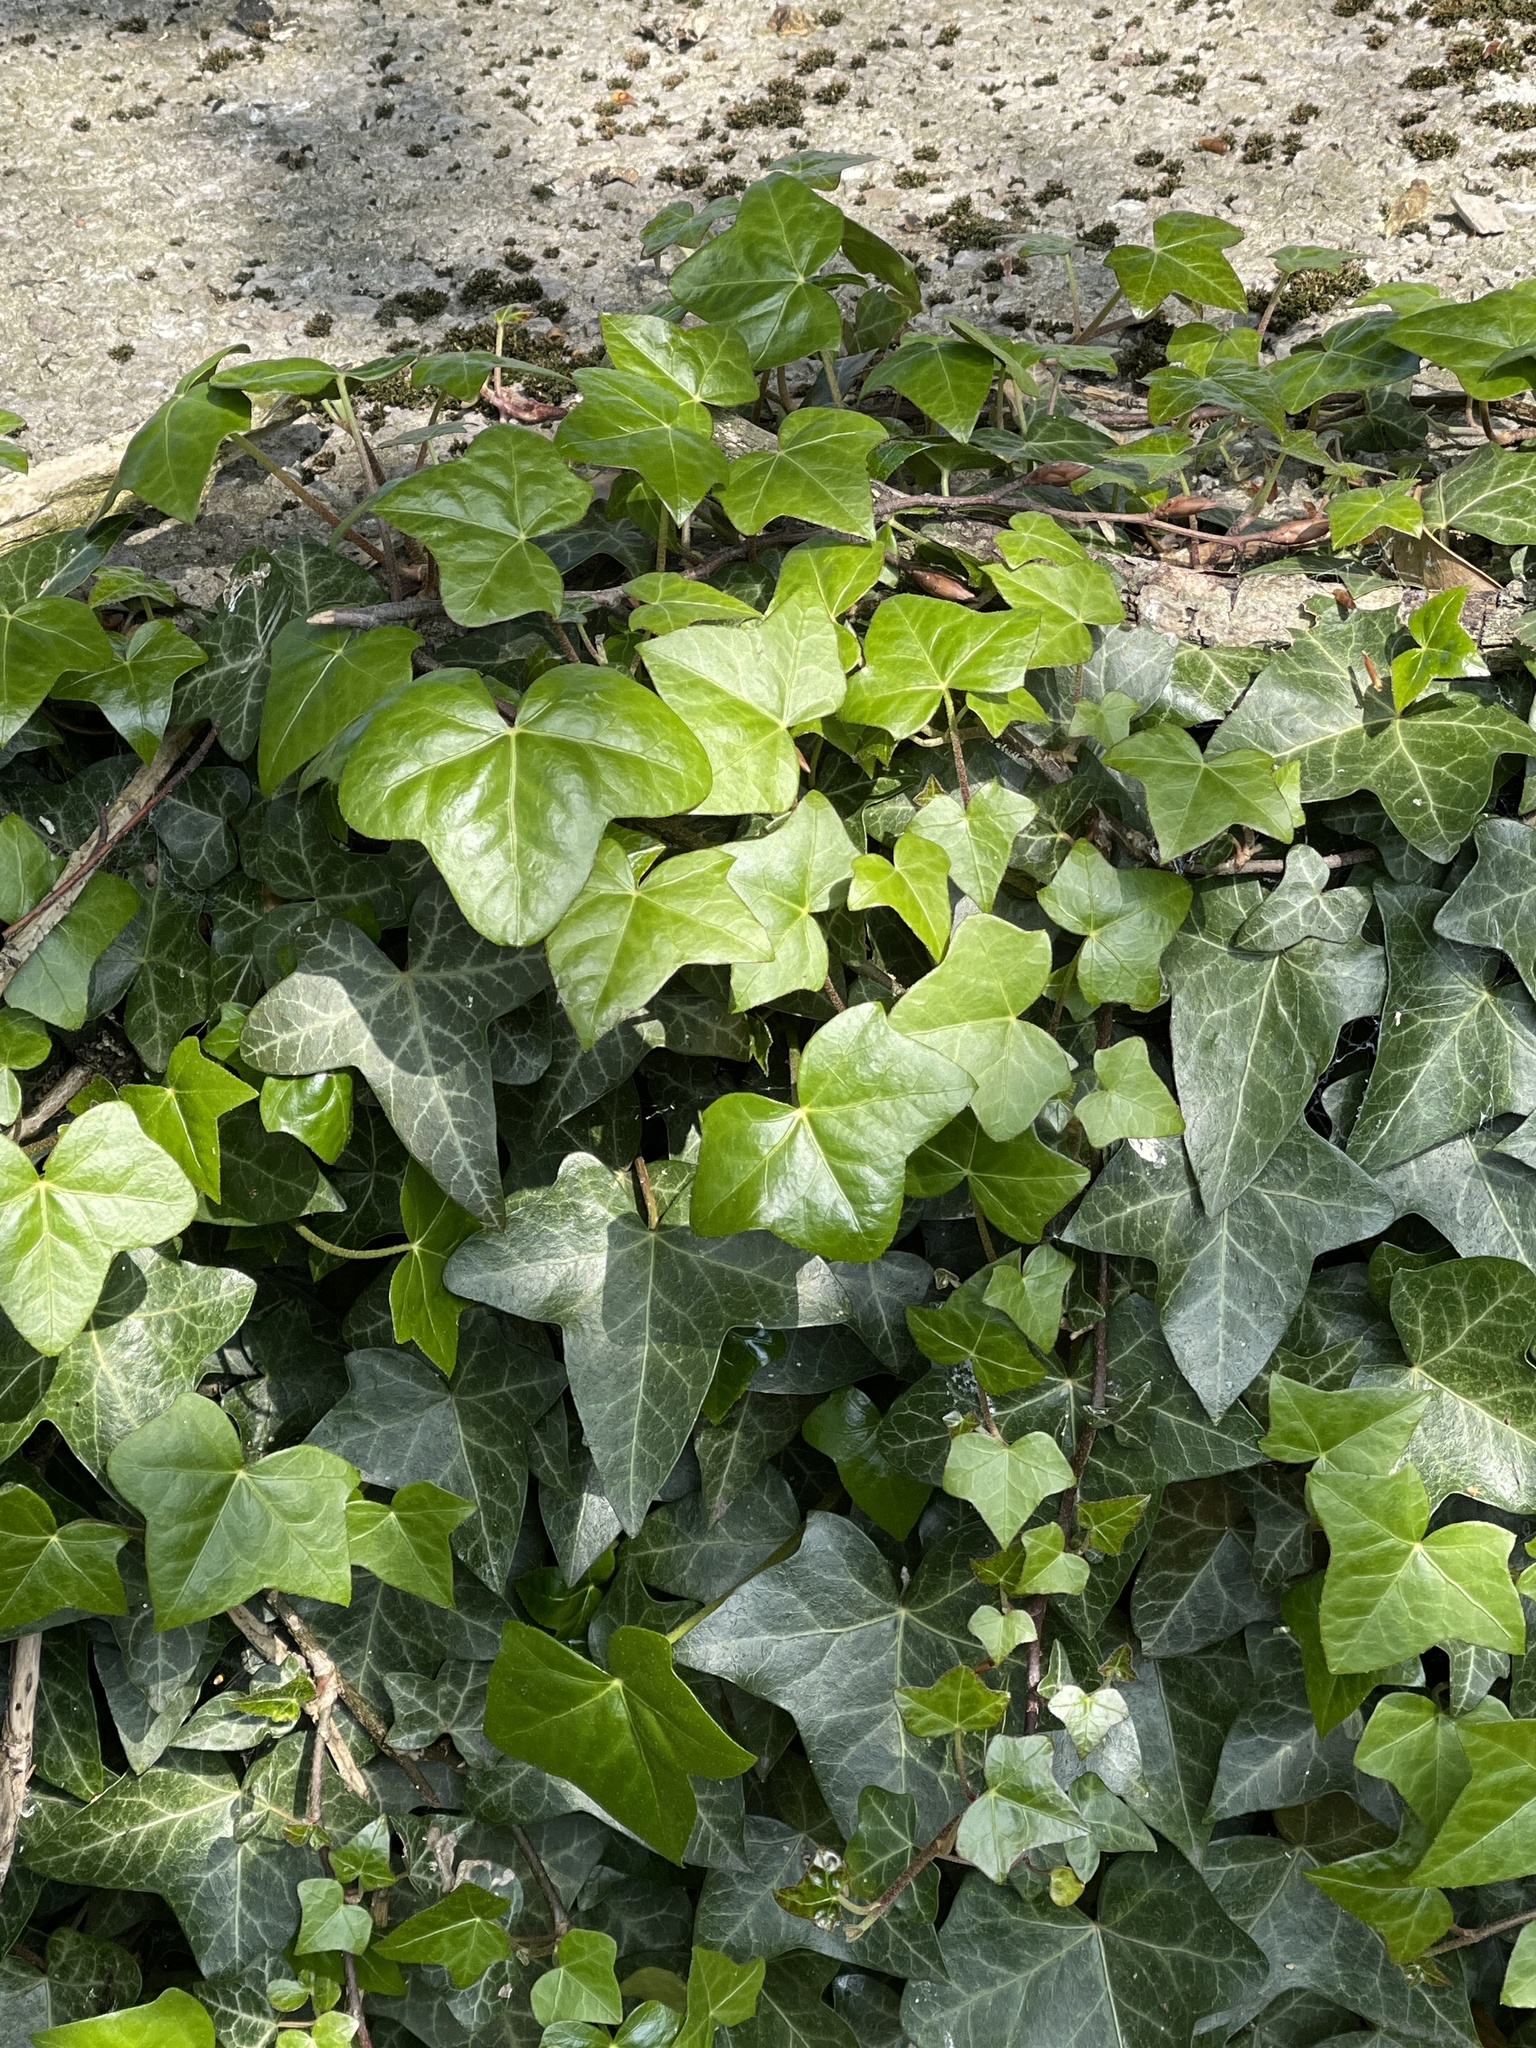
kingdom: Plantae
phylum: Tracheophyta
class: Magnoliopsida
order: Apiales
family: Araliaceae
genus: Hedera
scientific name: Hedera helix
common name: Ivy
